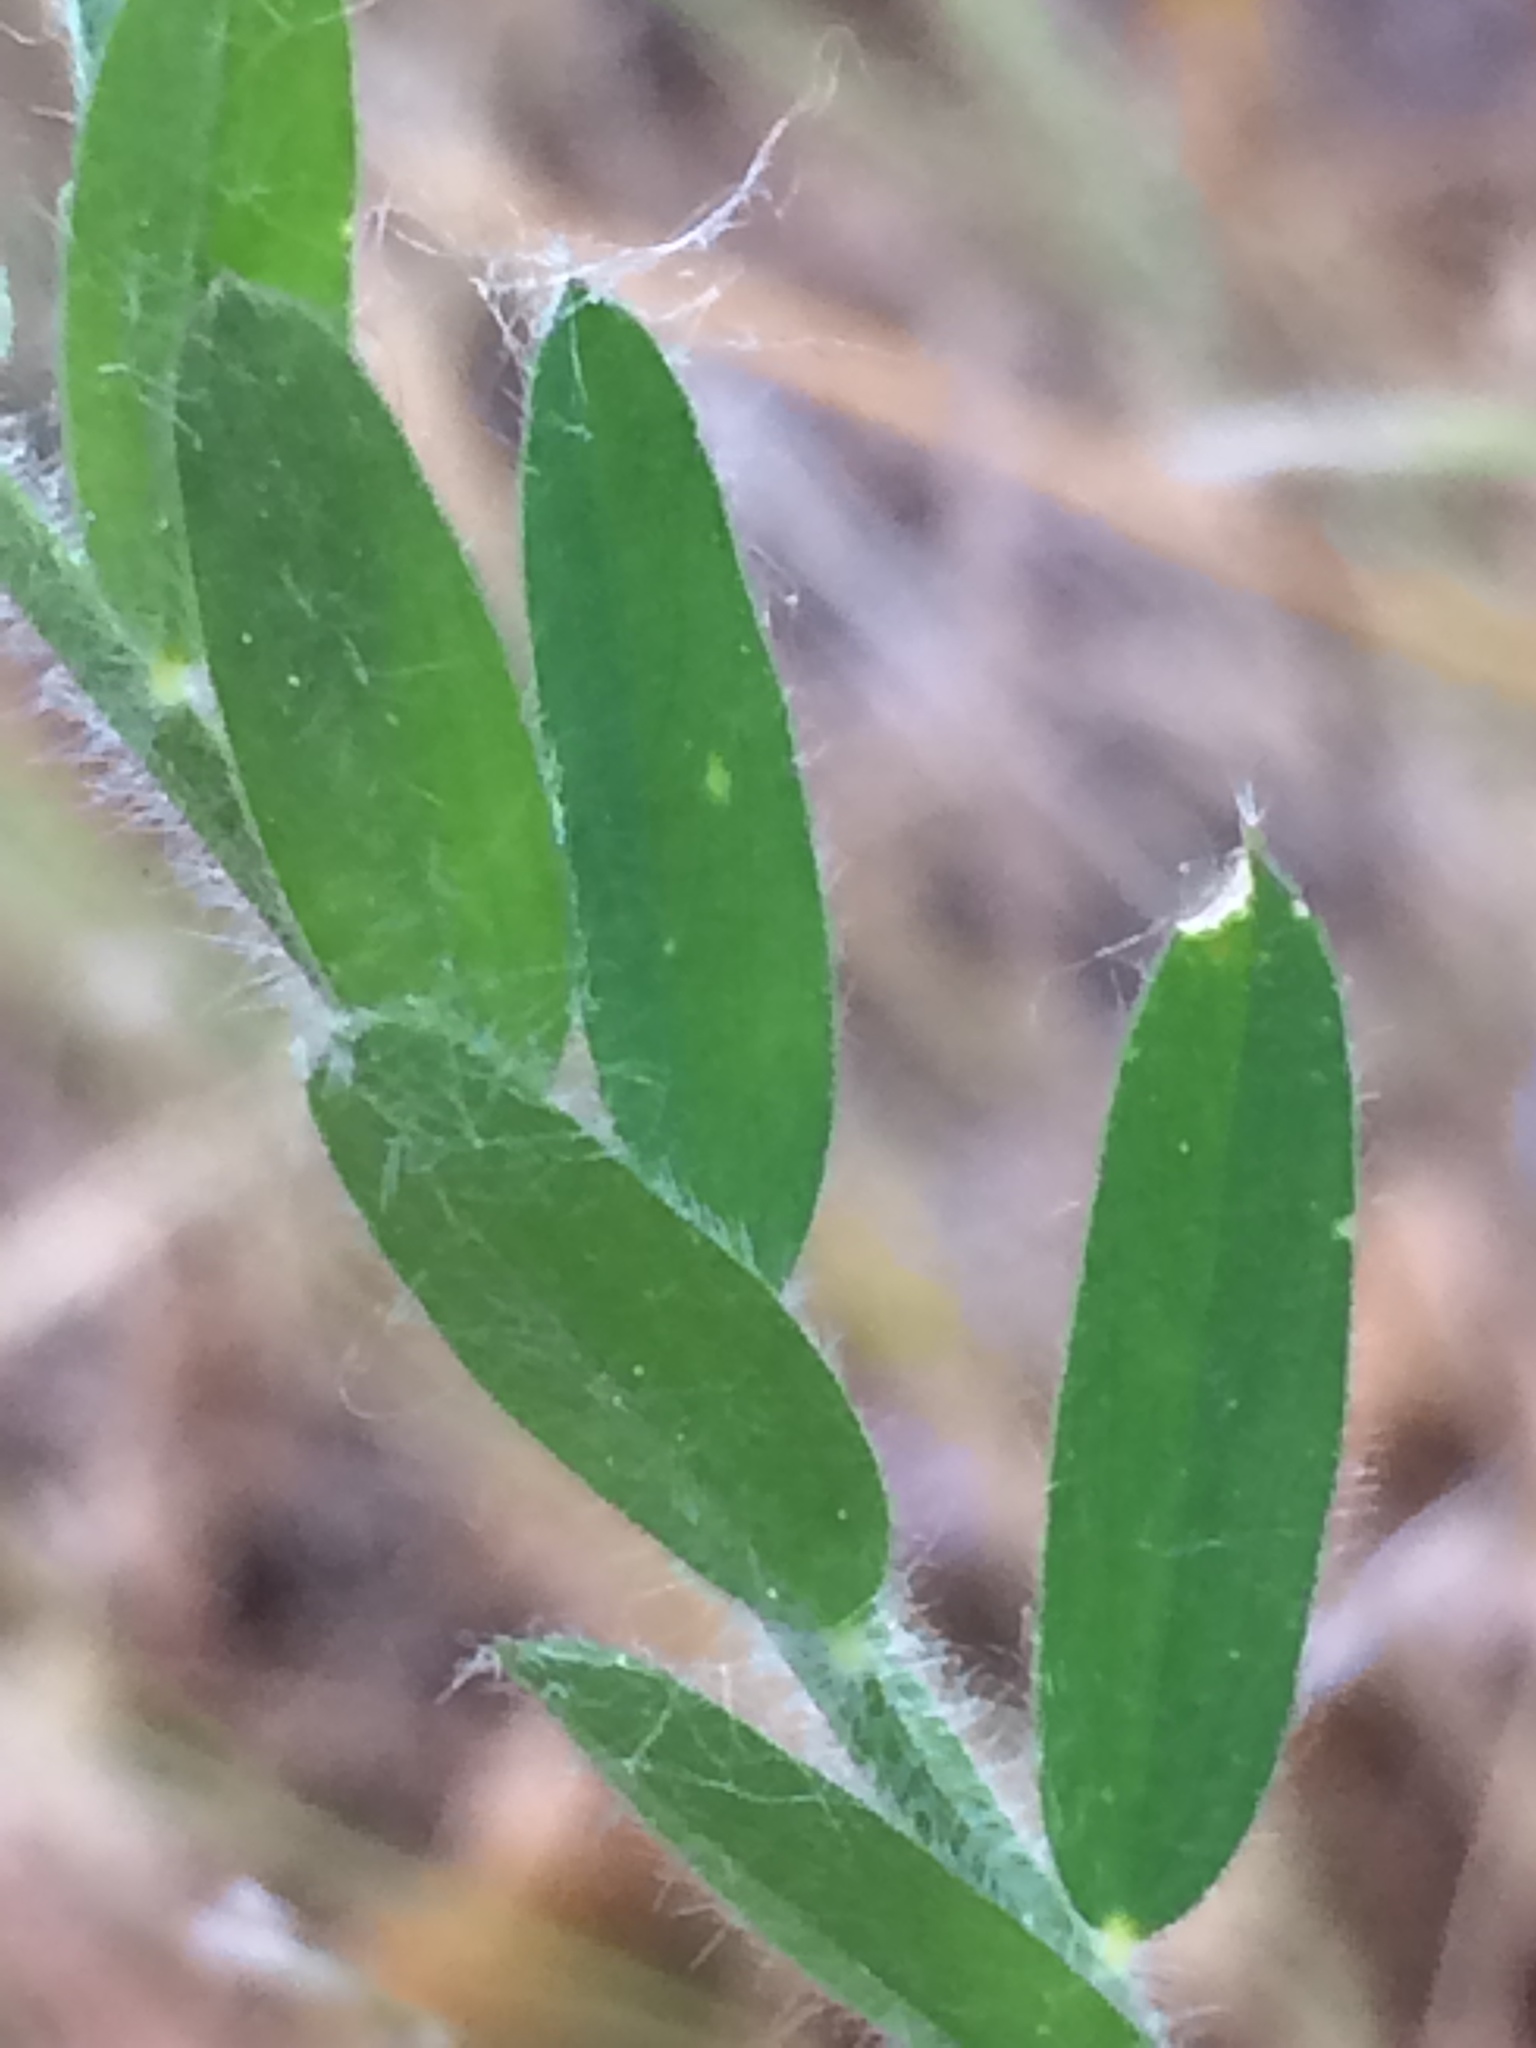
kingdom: Plantae
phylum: Tracheophyta
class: Magnoliopsida
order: Fabales
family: Fabaceae
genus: Vicia
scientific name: Vicia villosa
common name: Fodder vetch
